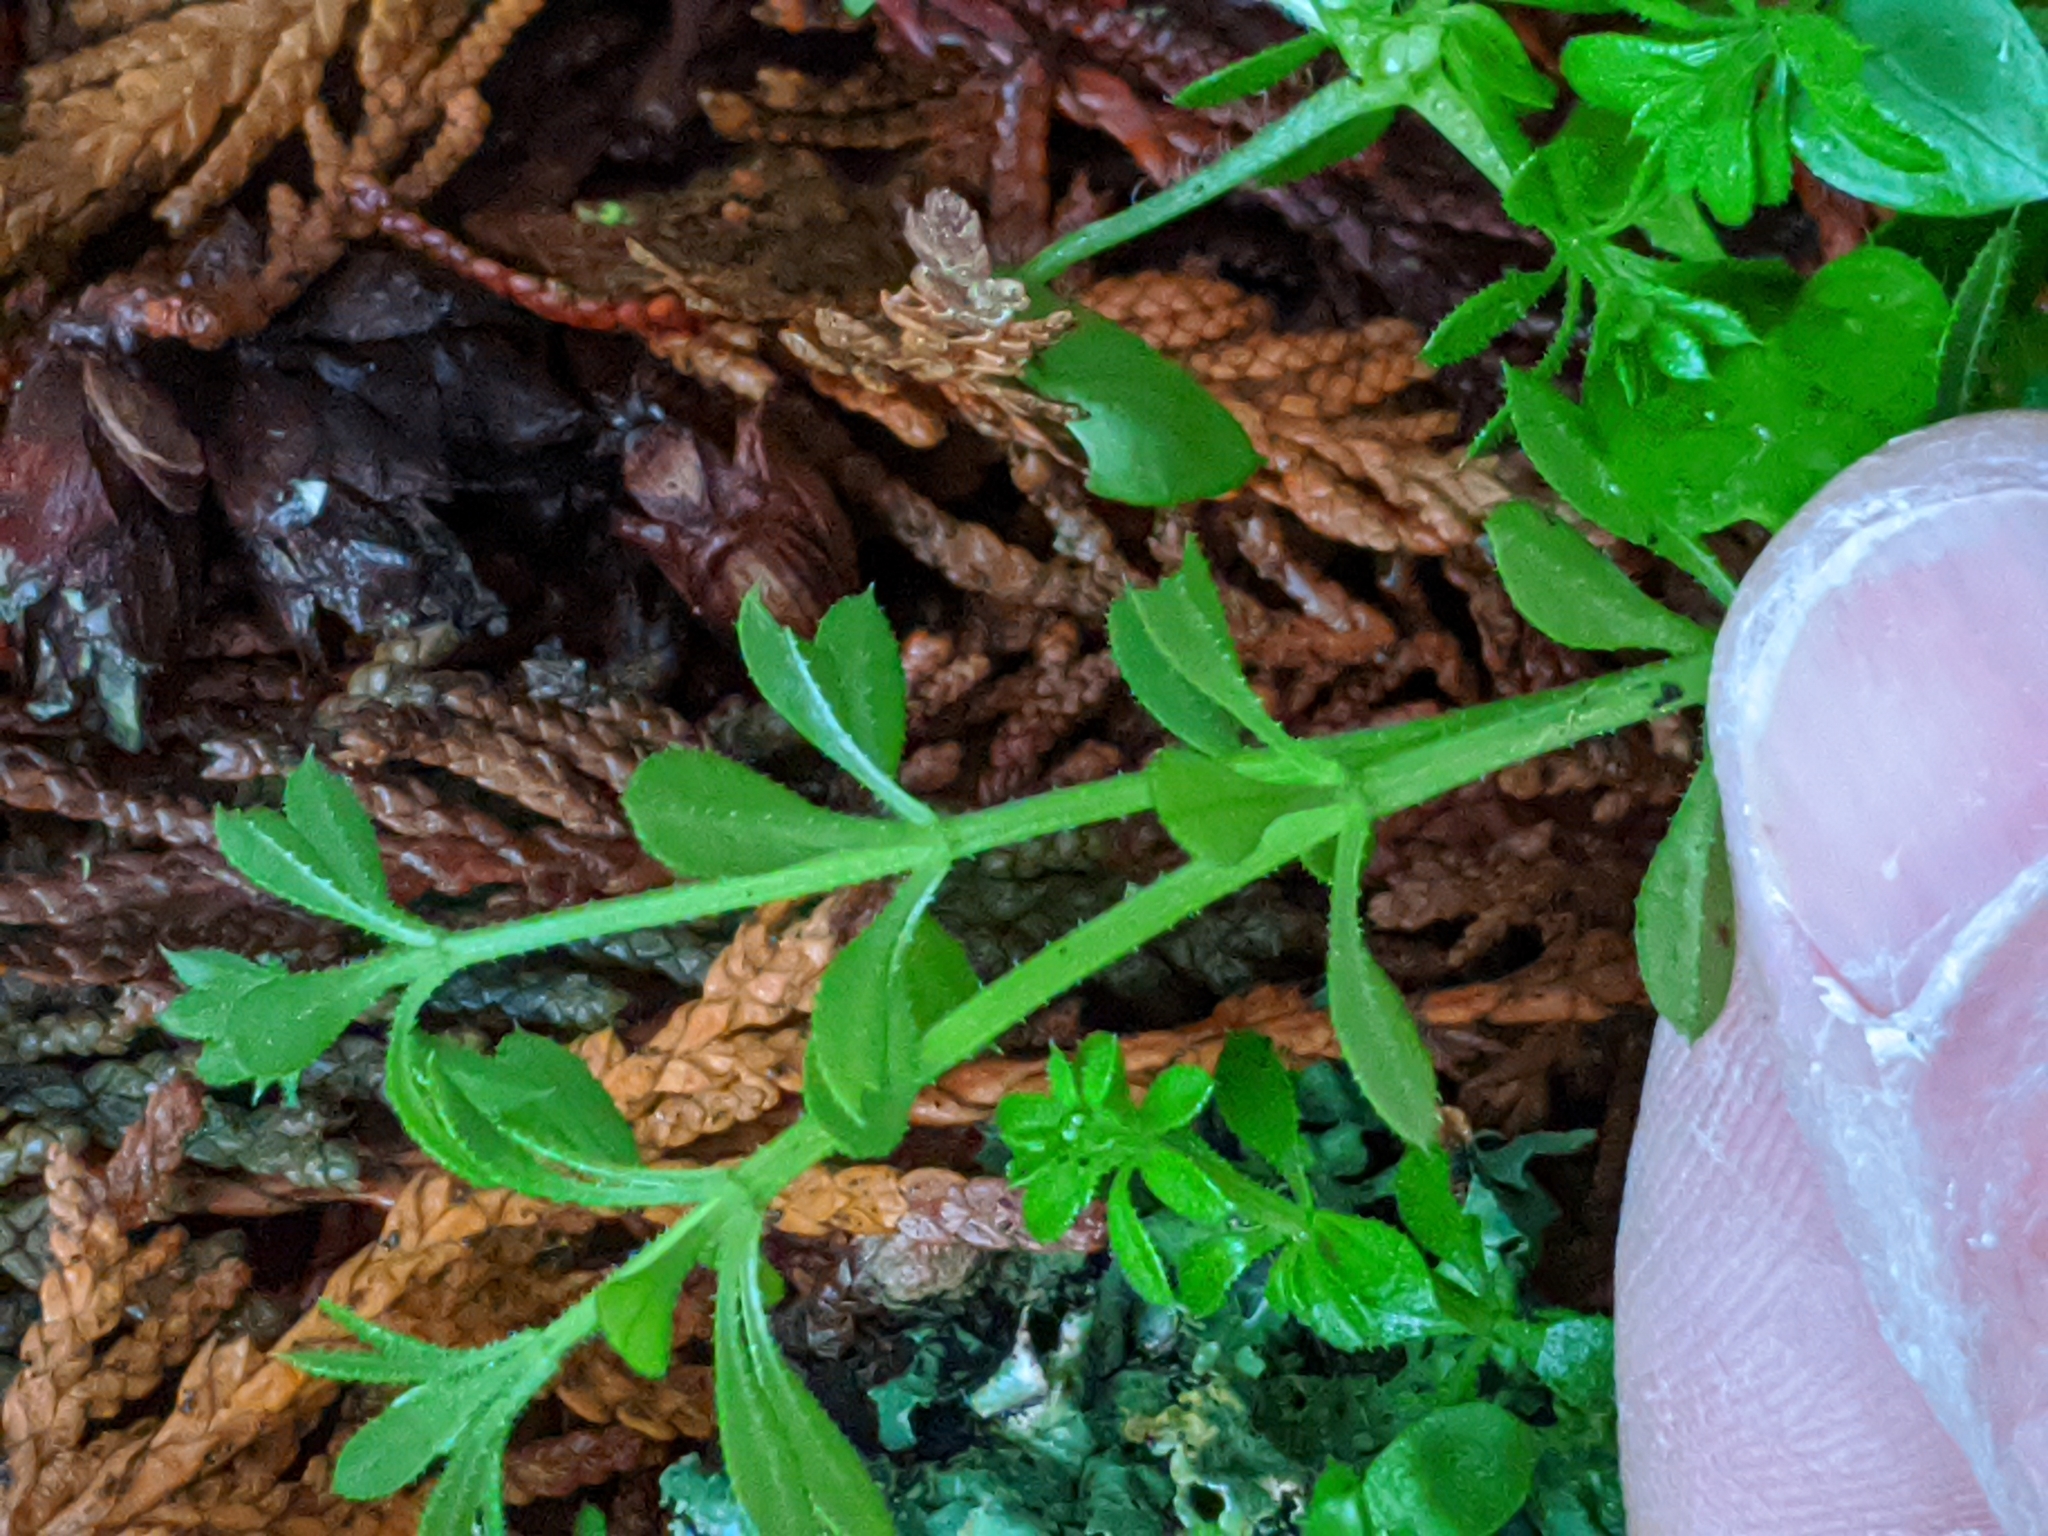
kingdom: Plantae
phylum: Tracheophyta
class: Magnoliopsida
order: Gentianales
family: Rubiaceae
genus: Galium
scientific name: Galium aparine
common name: Cleavers
